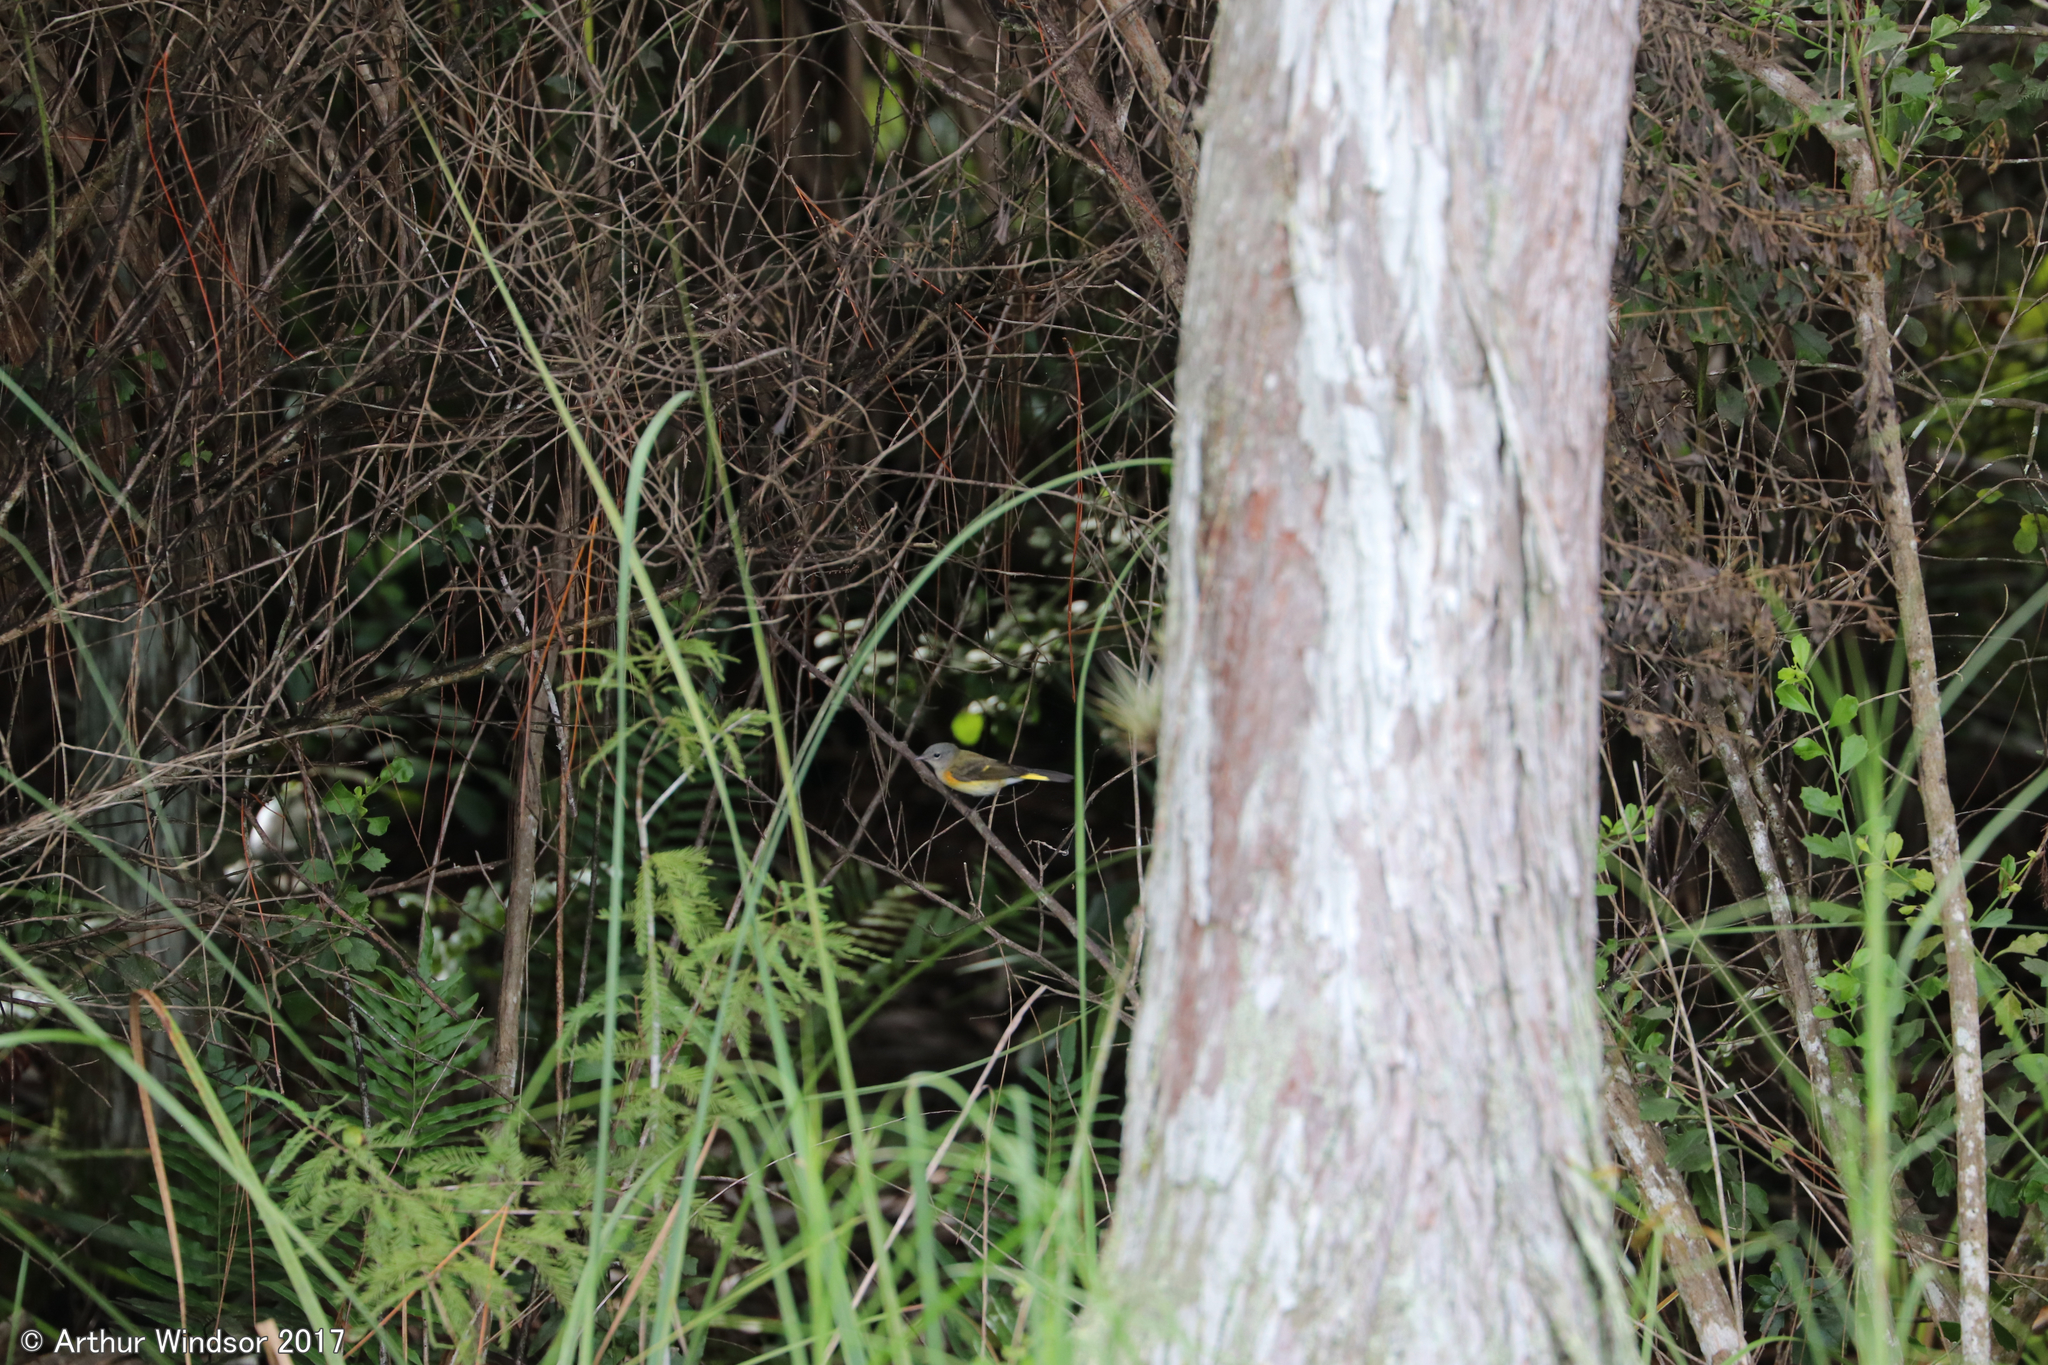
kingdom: Animalia
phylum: Chordata
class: Aves
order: Passeriformes
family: Parulidae
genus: Setophaga
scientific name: Setophaga ruticilla
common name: American redstart
